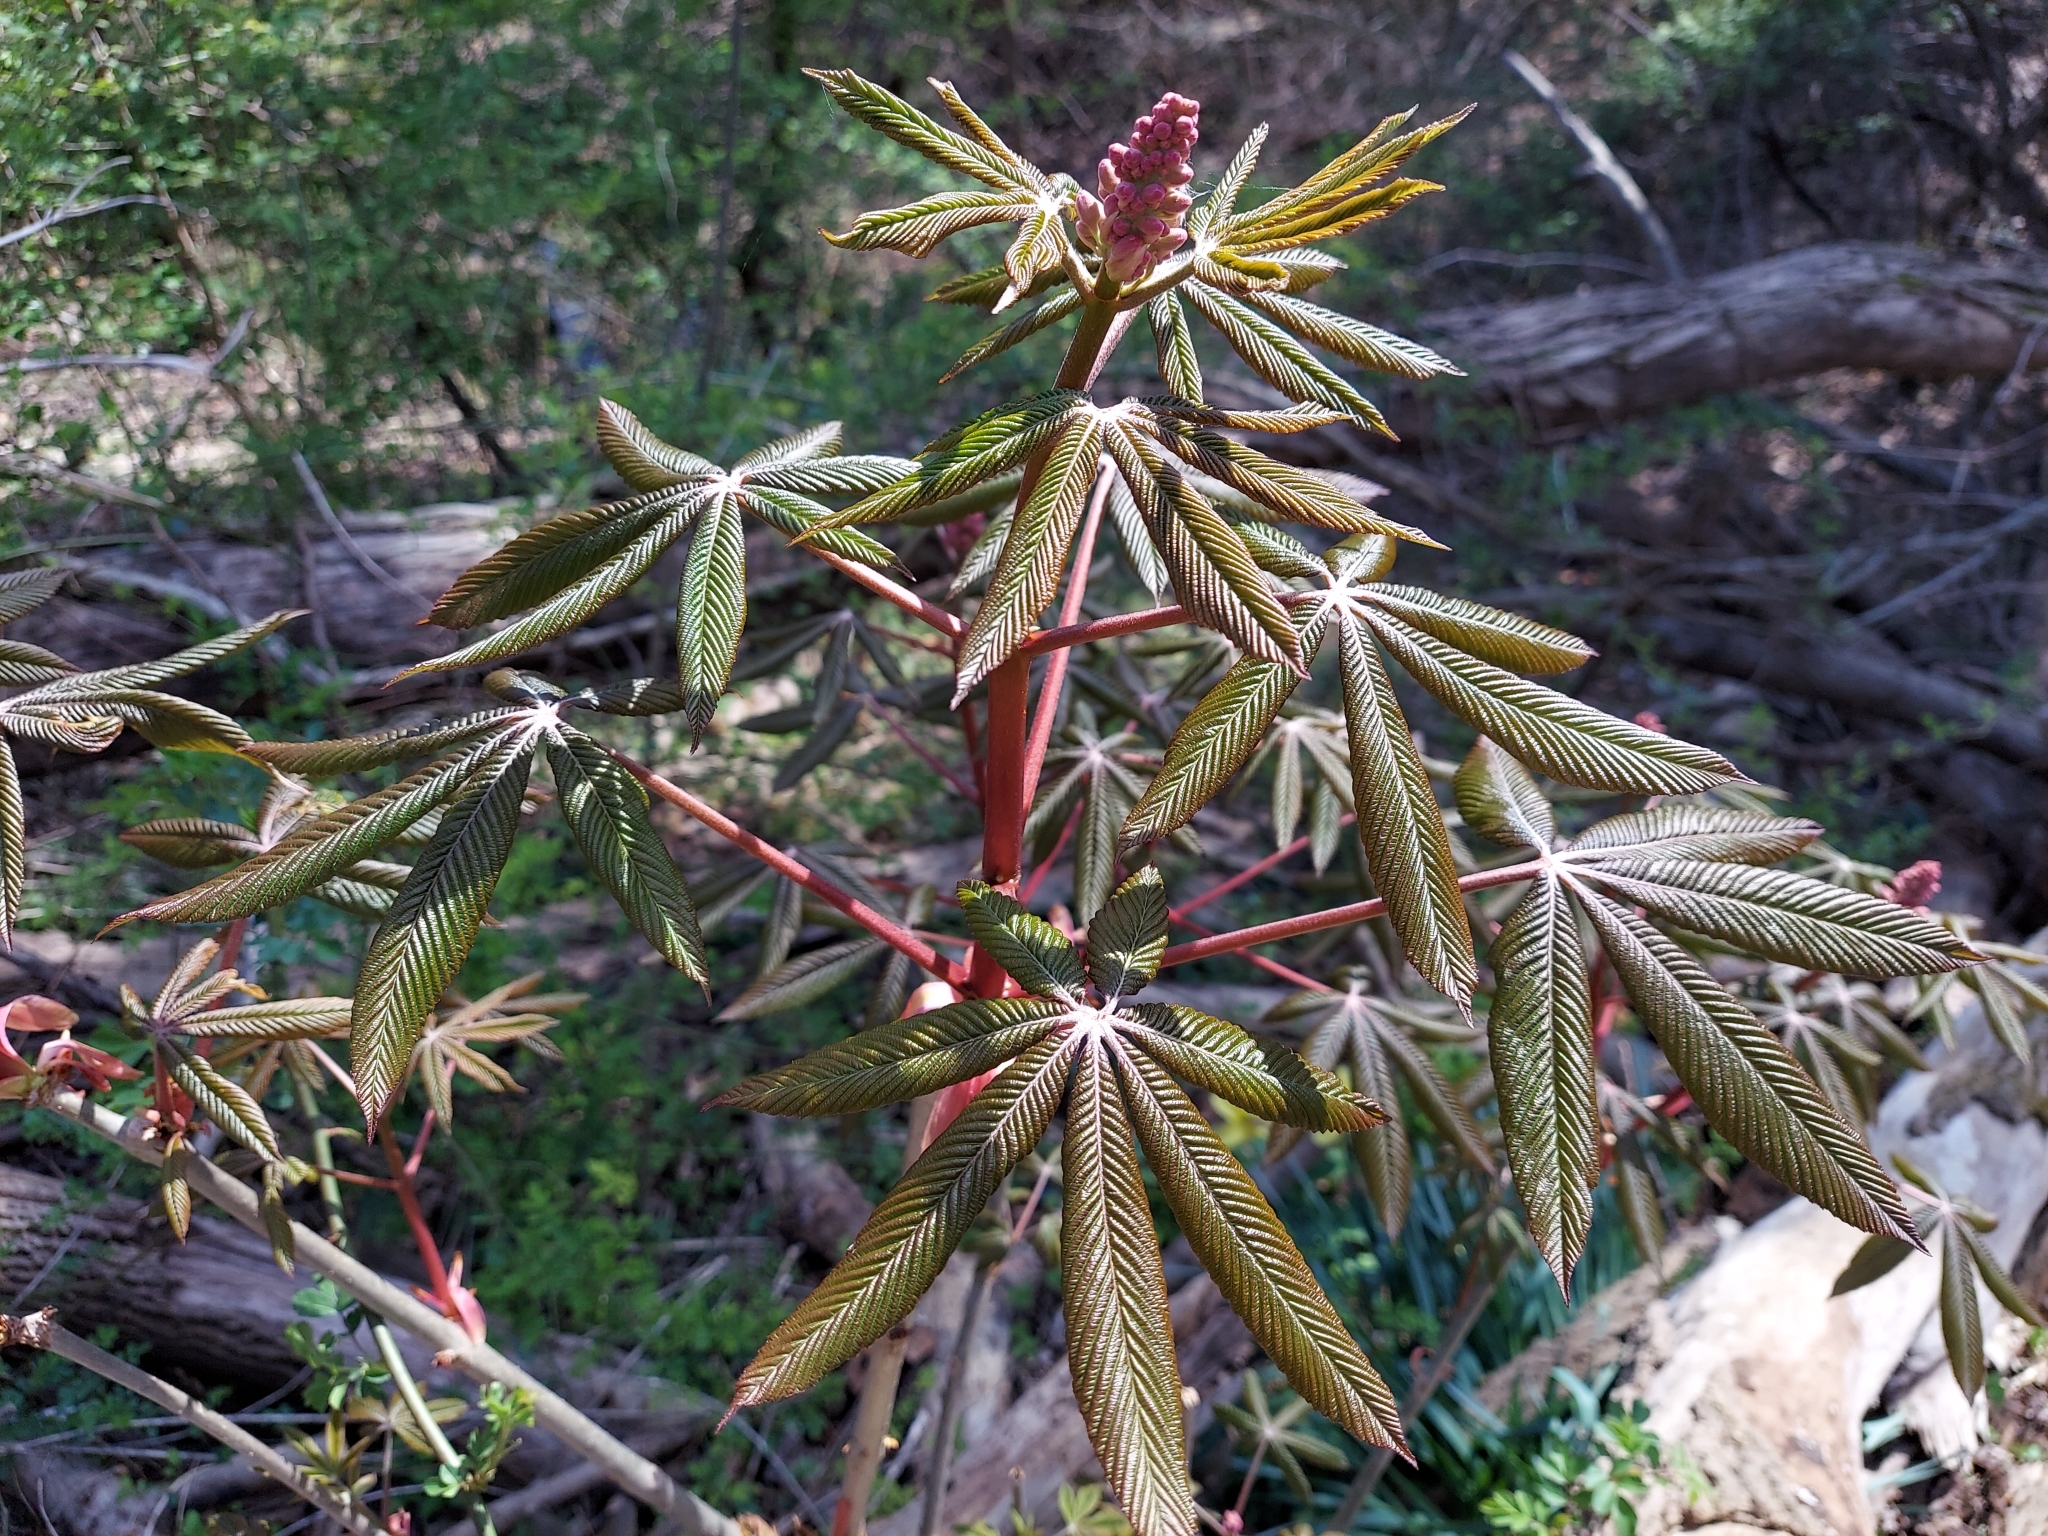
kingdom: Plantae
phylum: Tracheophyta
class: Magnoliopsida
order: Sapindales
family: Sapindaceae
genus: Aesculus
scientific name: Aesculus carnea
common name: Red horse-chestnut
